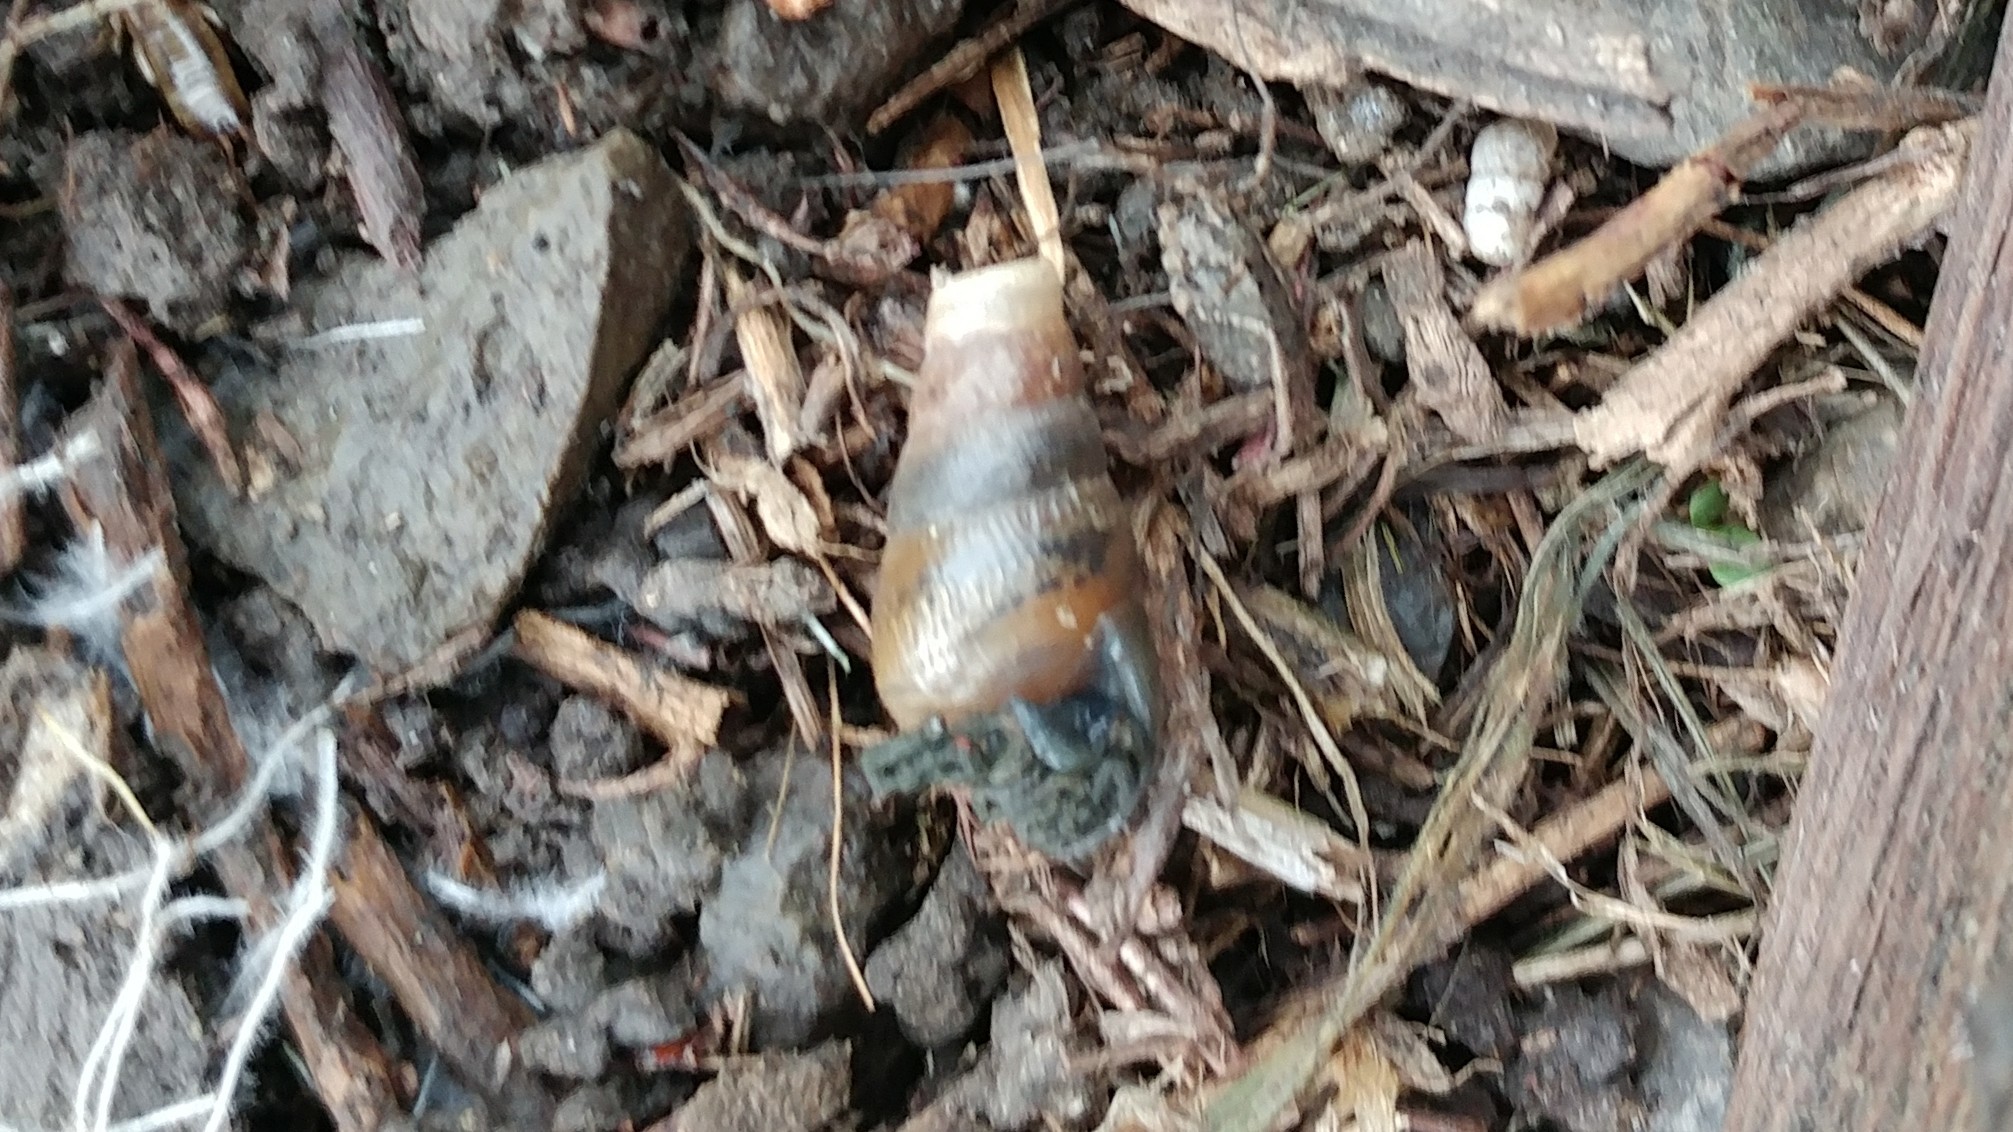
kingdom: Animalia
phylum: Mollusca
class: Gastropoda
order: Stylommatophora
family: Achatinidae
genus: Rumina
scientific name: Rumina decollata
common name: Decollate snail
